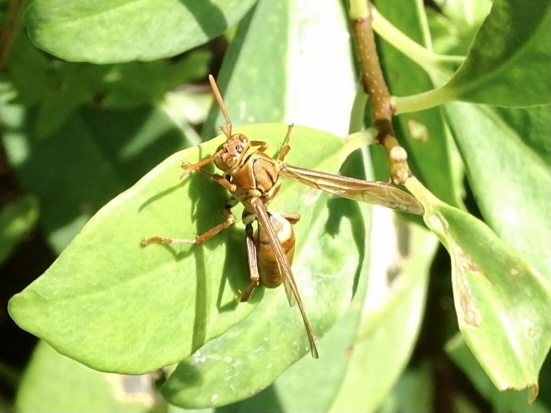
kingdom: Animalia
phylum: Arthropoda
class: Insecta
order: Hymenoptera
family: Eumenidae
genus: Polistes
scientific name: Polistes japonicus
